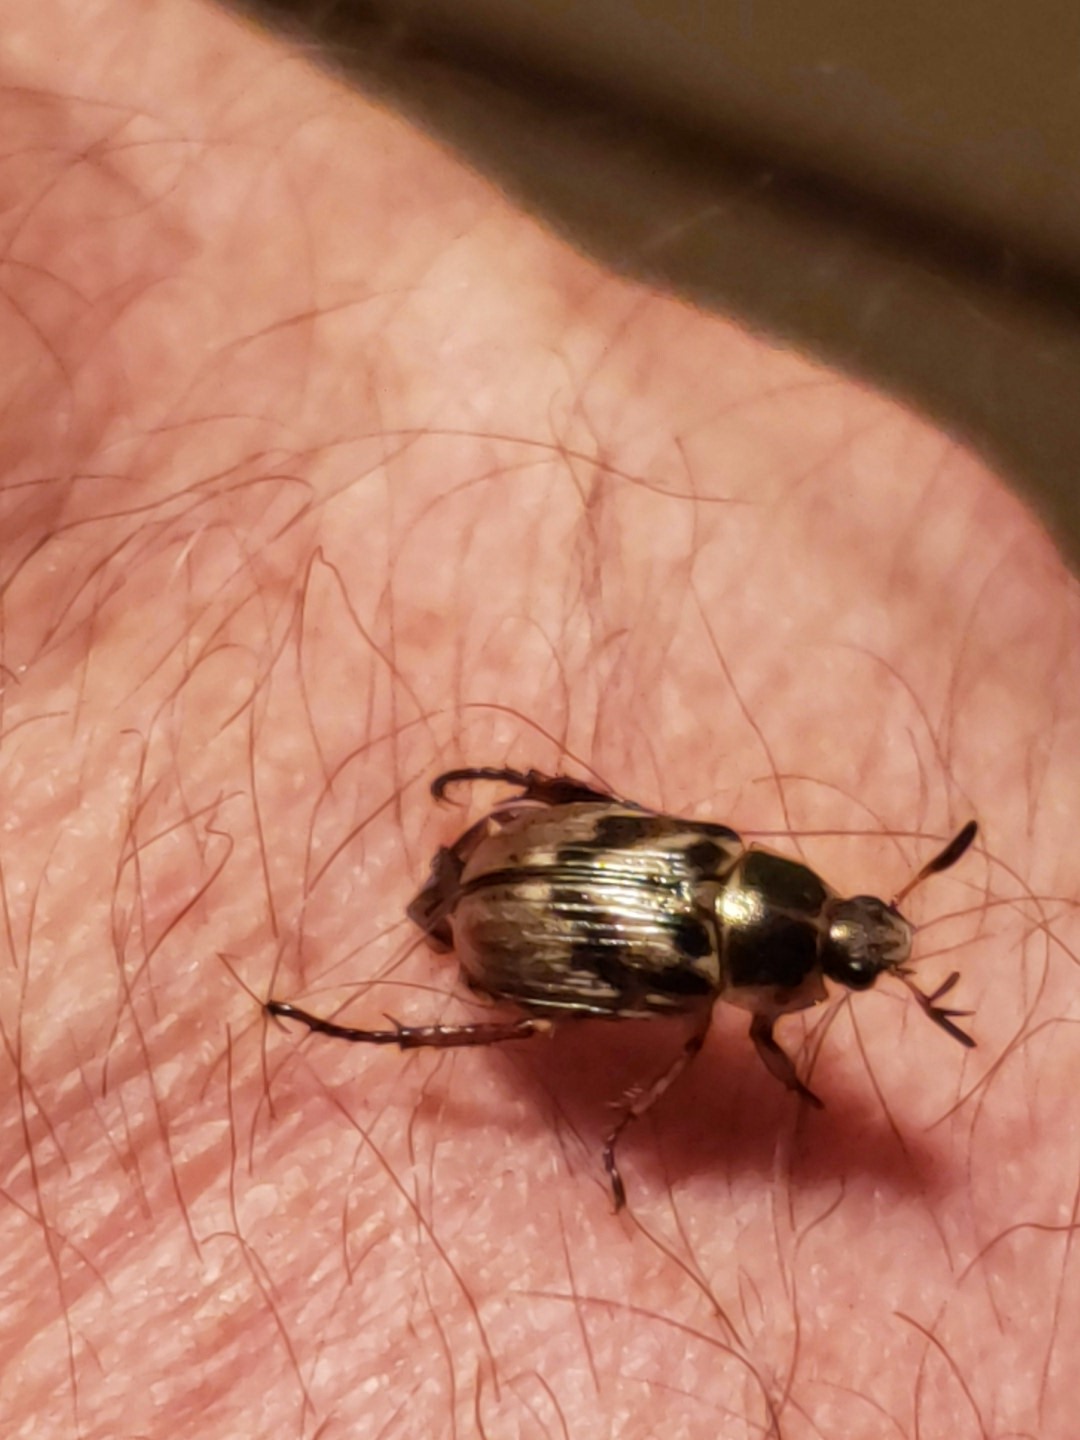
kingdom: Animalia
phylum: Arthropoda
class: Insecta
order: Coleoptera
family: Scarabaeidae
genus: Exomala
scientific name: Exomala orientalis
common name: Oriental beetle
